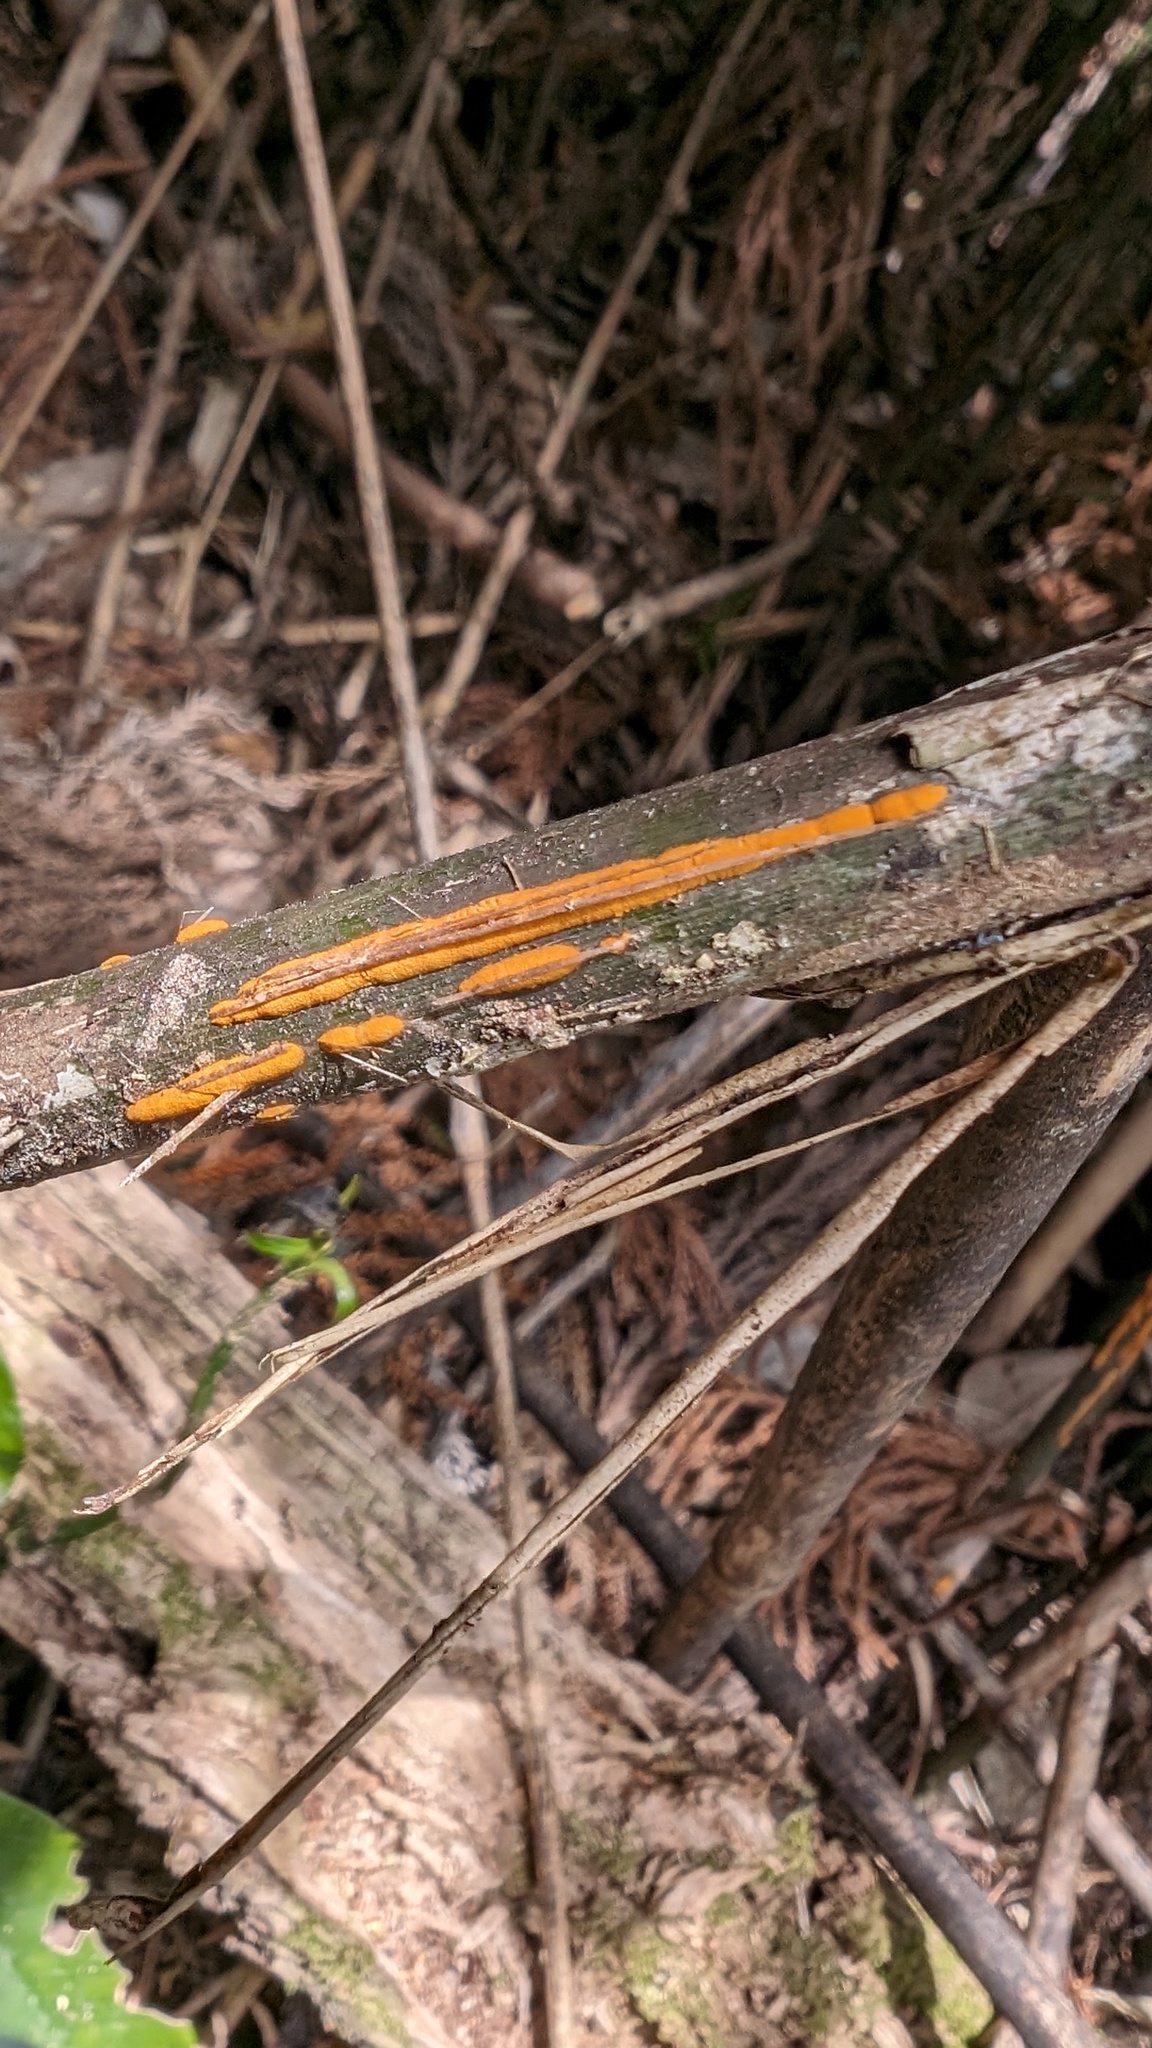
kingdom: Fungi
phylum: Basidiomycota
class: Pucciniomycetes
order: Pucciniales
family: Pucciniaceae
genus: Stereostratum
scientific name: Stereostratum corticioides
